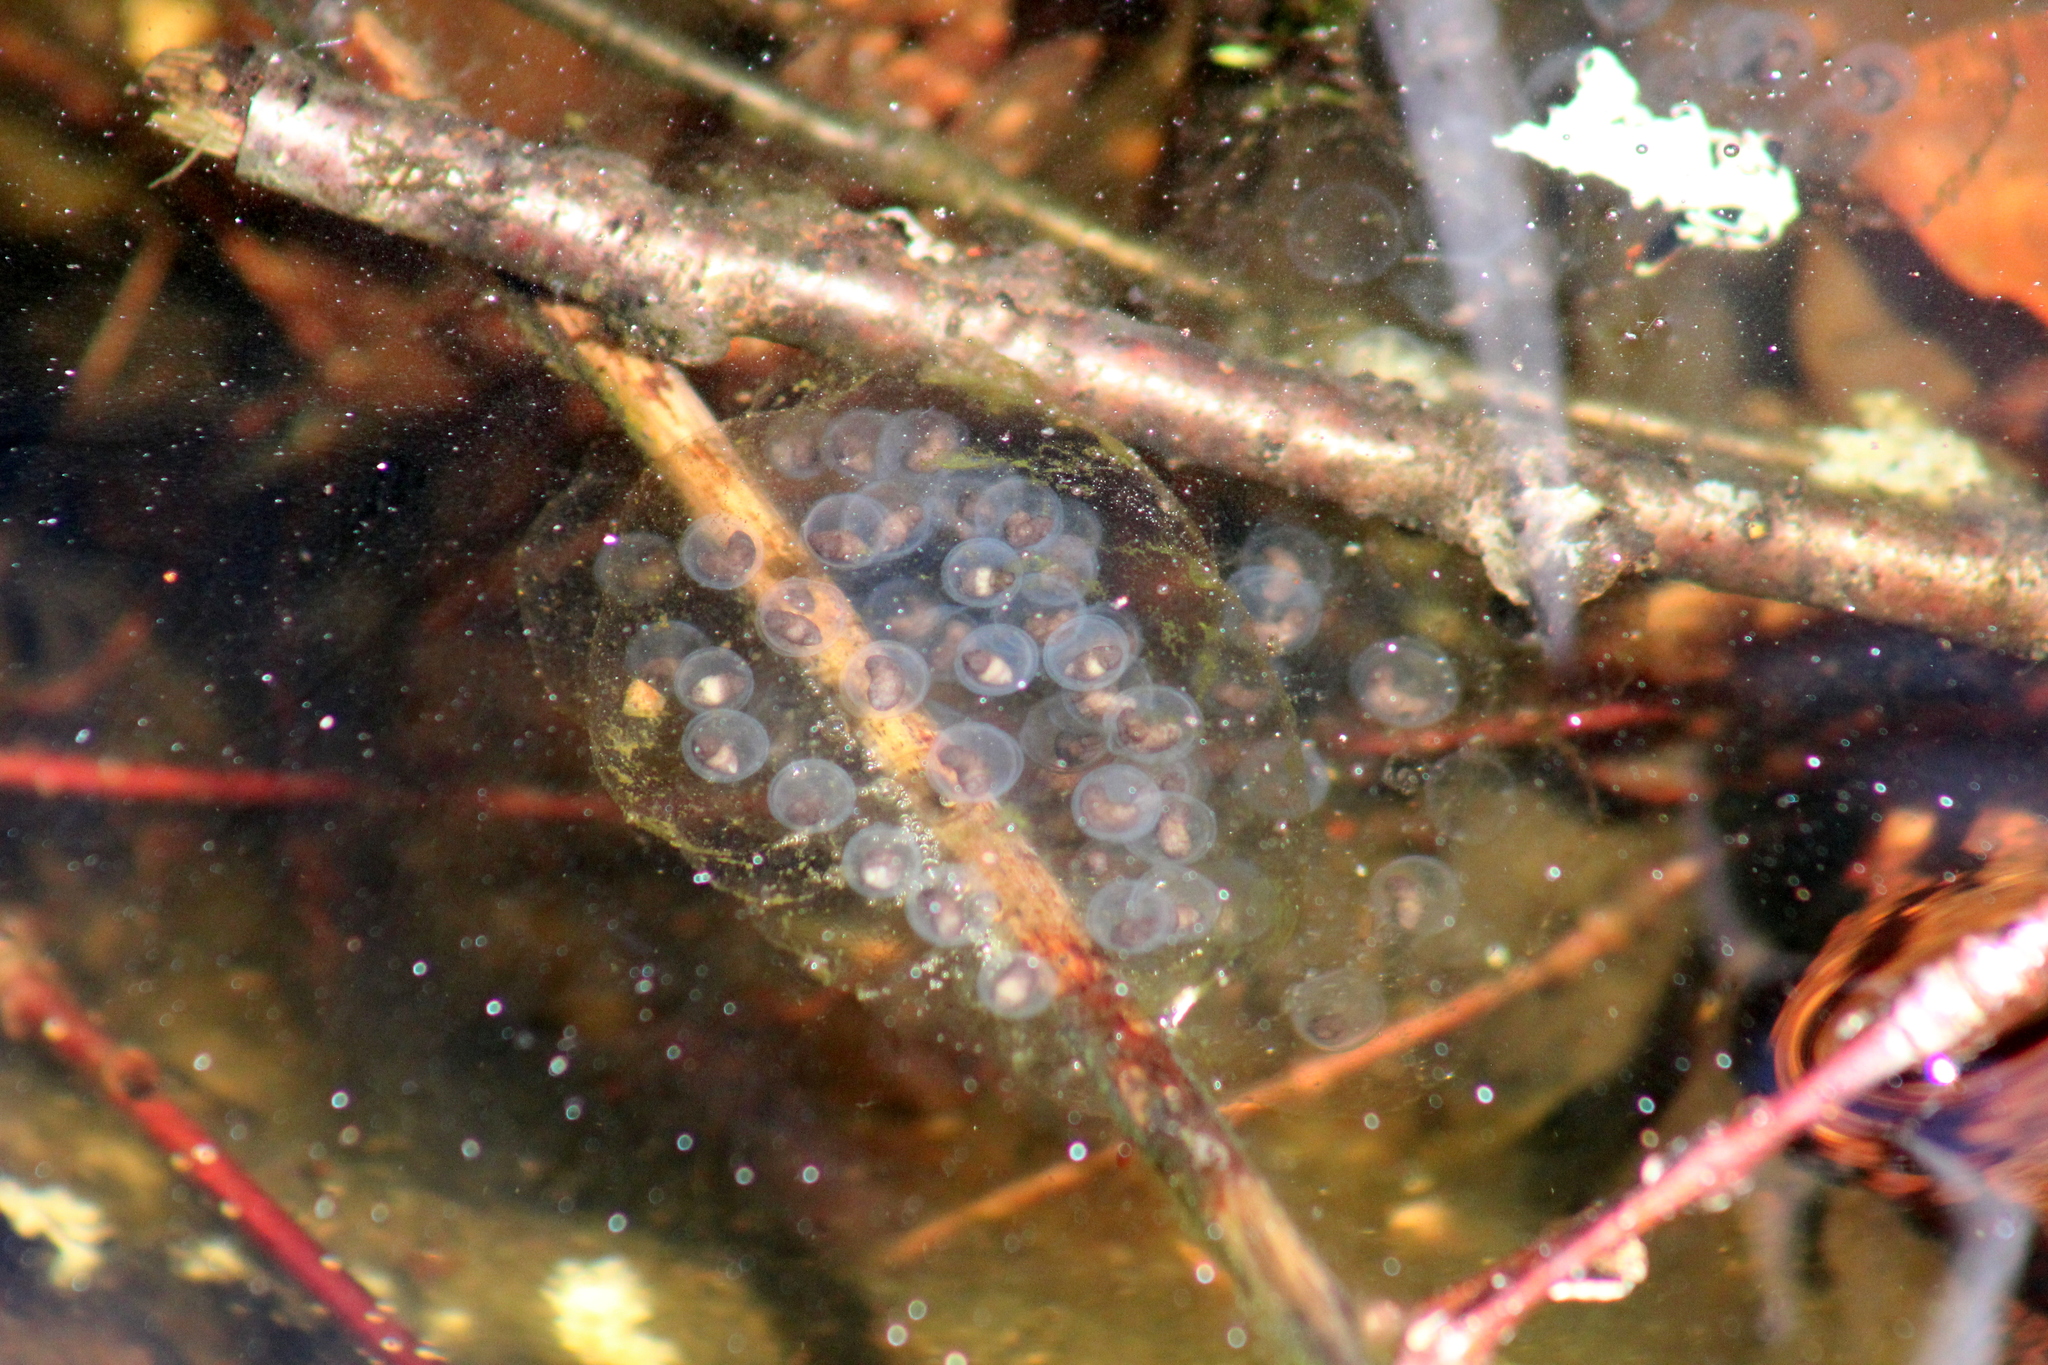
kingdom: Animalia
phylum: Chordata
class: Amphibia
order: Caudata
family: Ambystomatidae
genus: Ambystoma
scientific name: Ambystoma jeffersonianum
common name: Jefferson salamander
